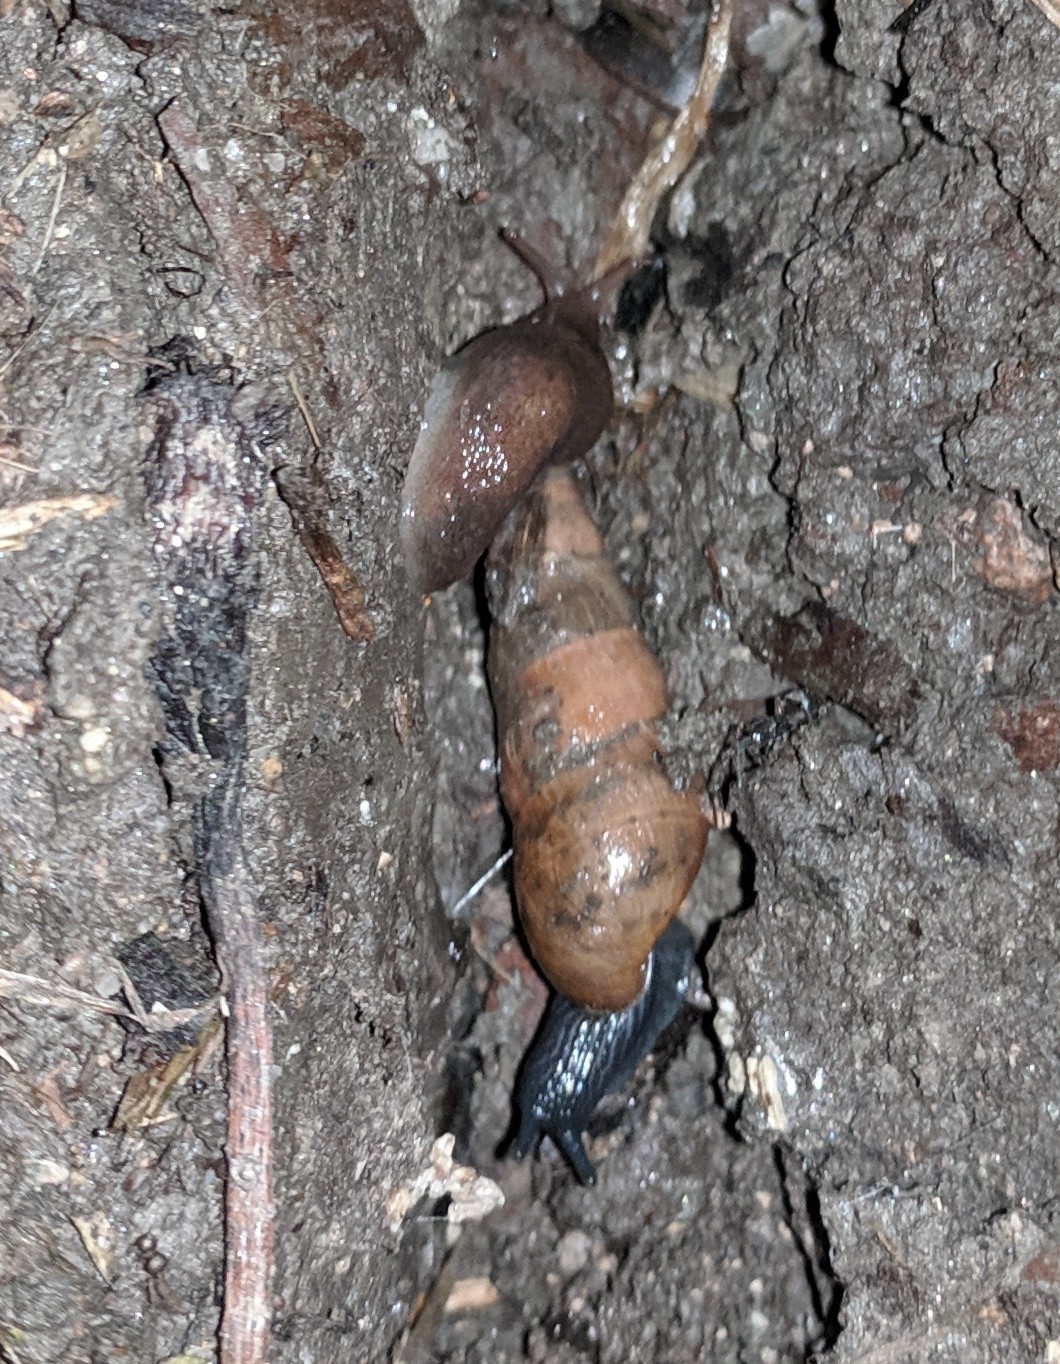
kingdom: Animalia
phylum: Mollusca
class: Gastropoda
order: Stylommatophora
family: Achatinidae
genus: Rumina
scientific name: Rumina decollata
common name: Decollate snail
